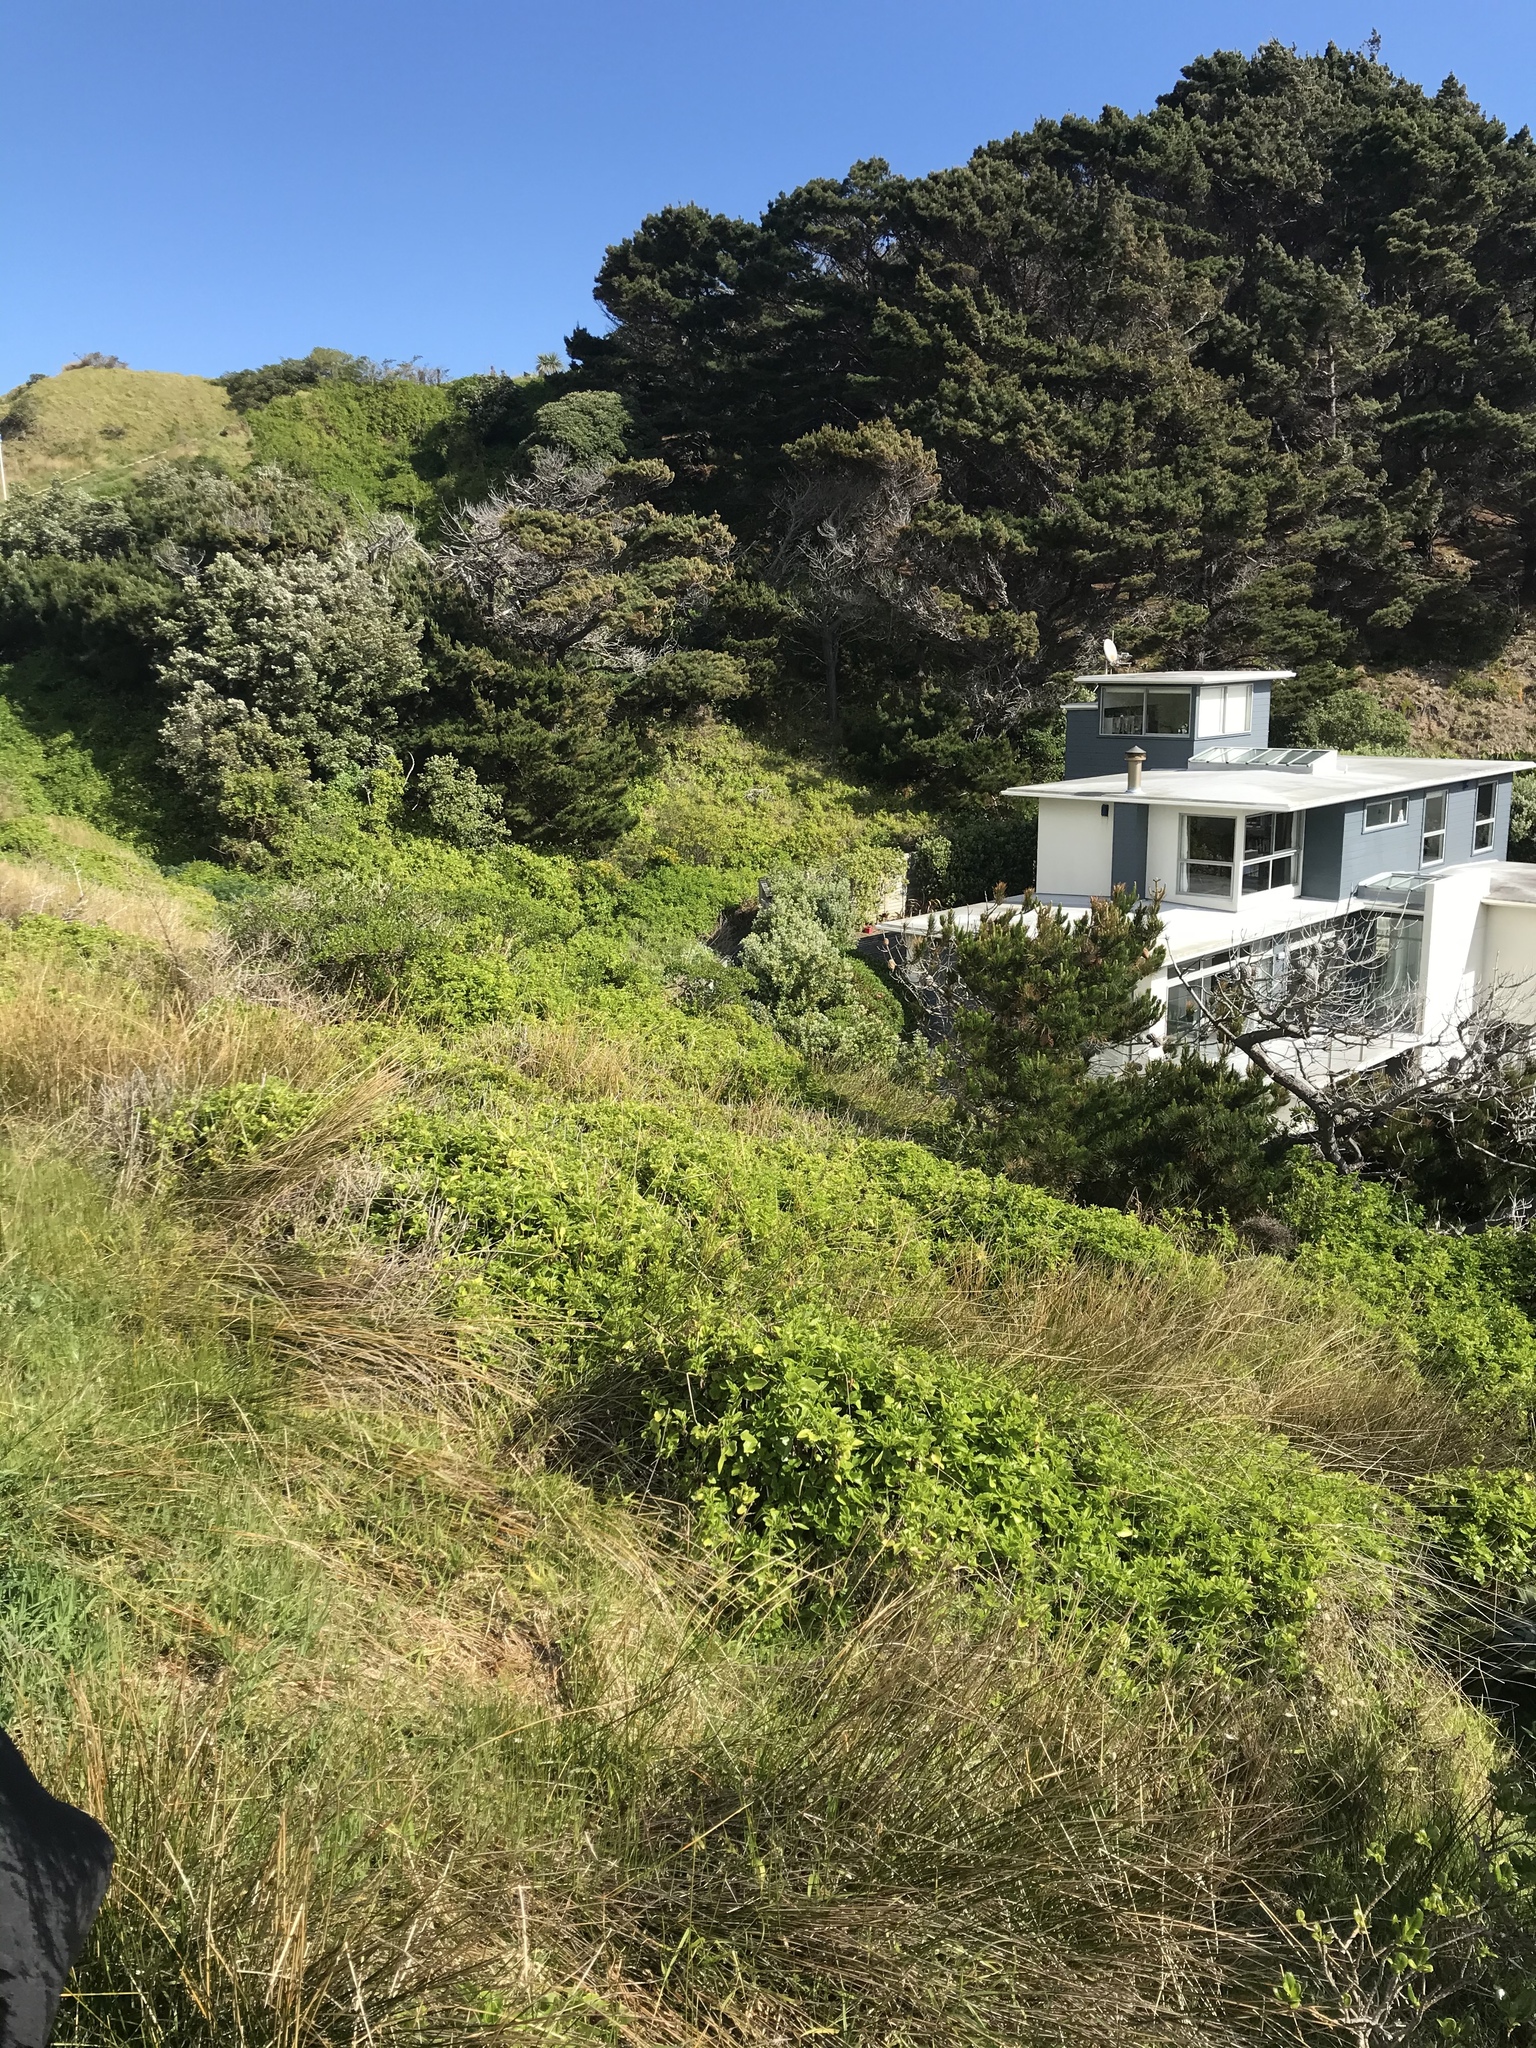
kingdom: Plantae
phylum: Tracheophyta
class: Magnoliopsida
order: Asterales
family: Asteraceae
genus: Senecio
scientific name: Senecio angulatus
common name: Climbing groundsel
